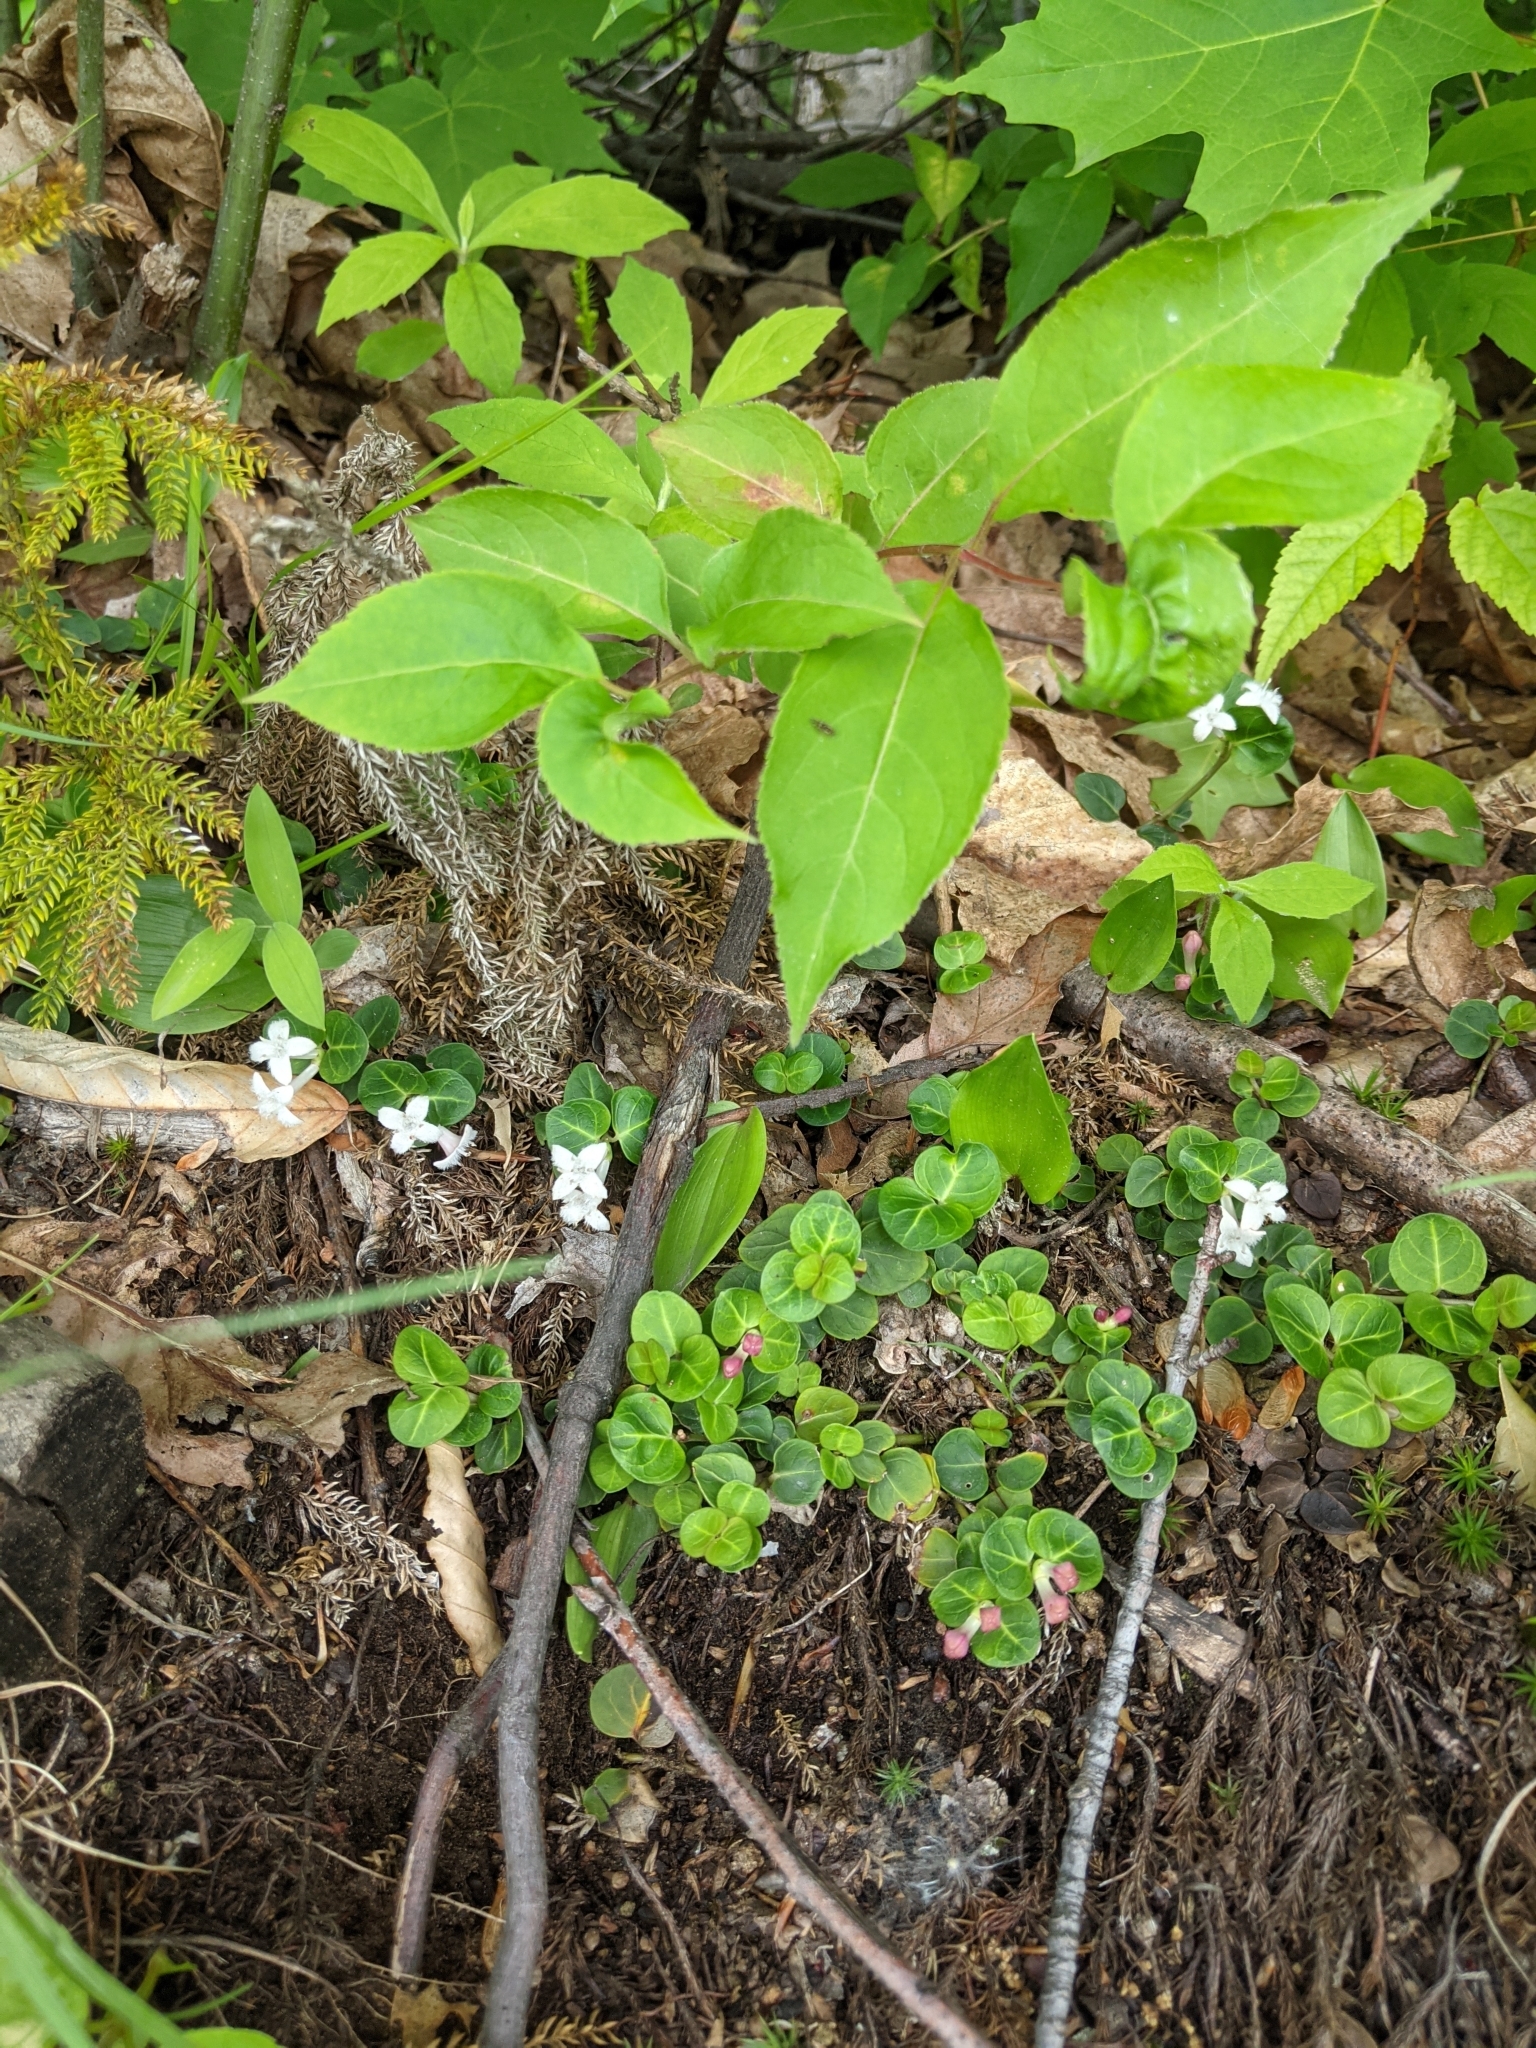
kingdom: Plantae
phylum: Tracheophyta
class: Magnoliopsida
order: Gentianales
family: Rubiaceae
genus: Mitchella
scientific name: Mitchella repens
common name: Partridge-berry
